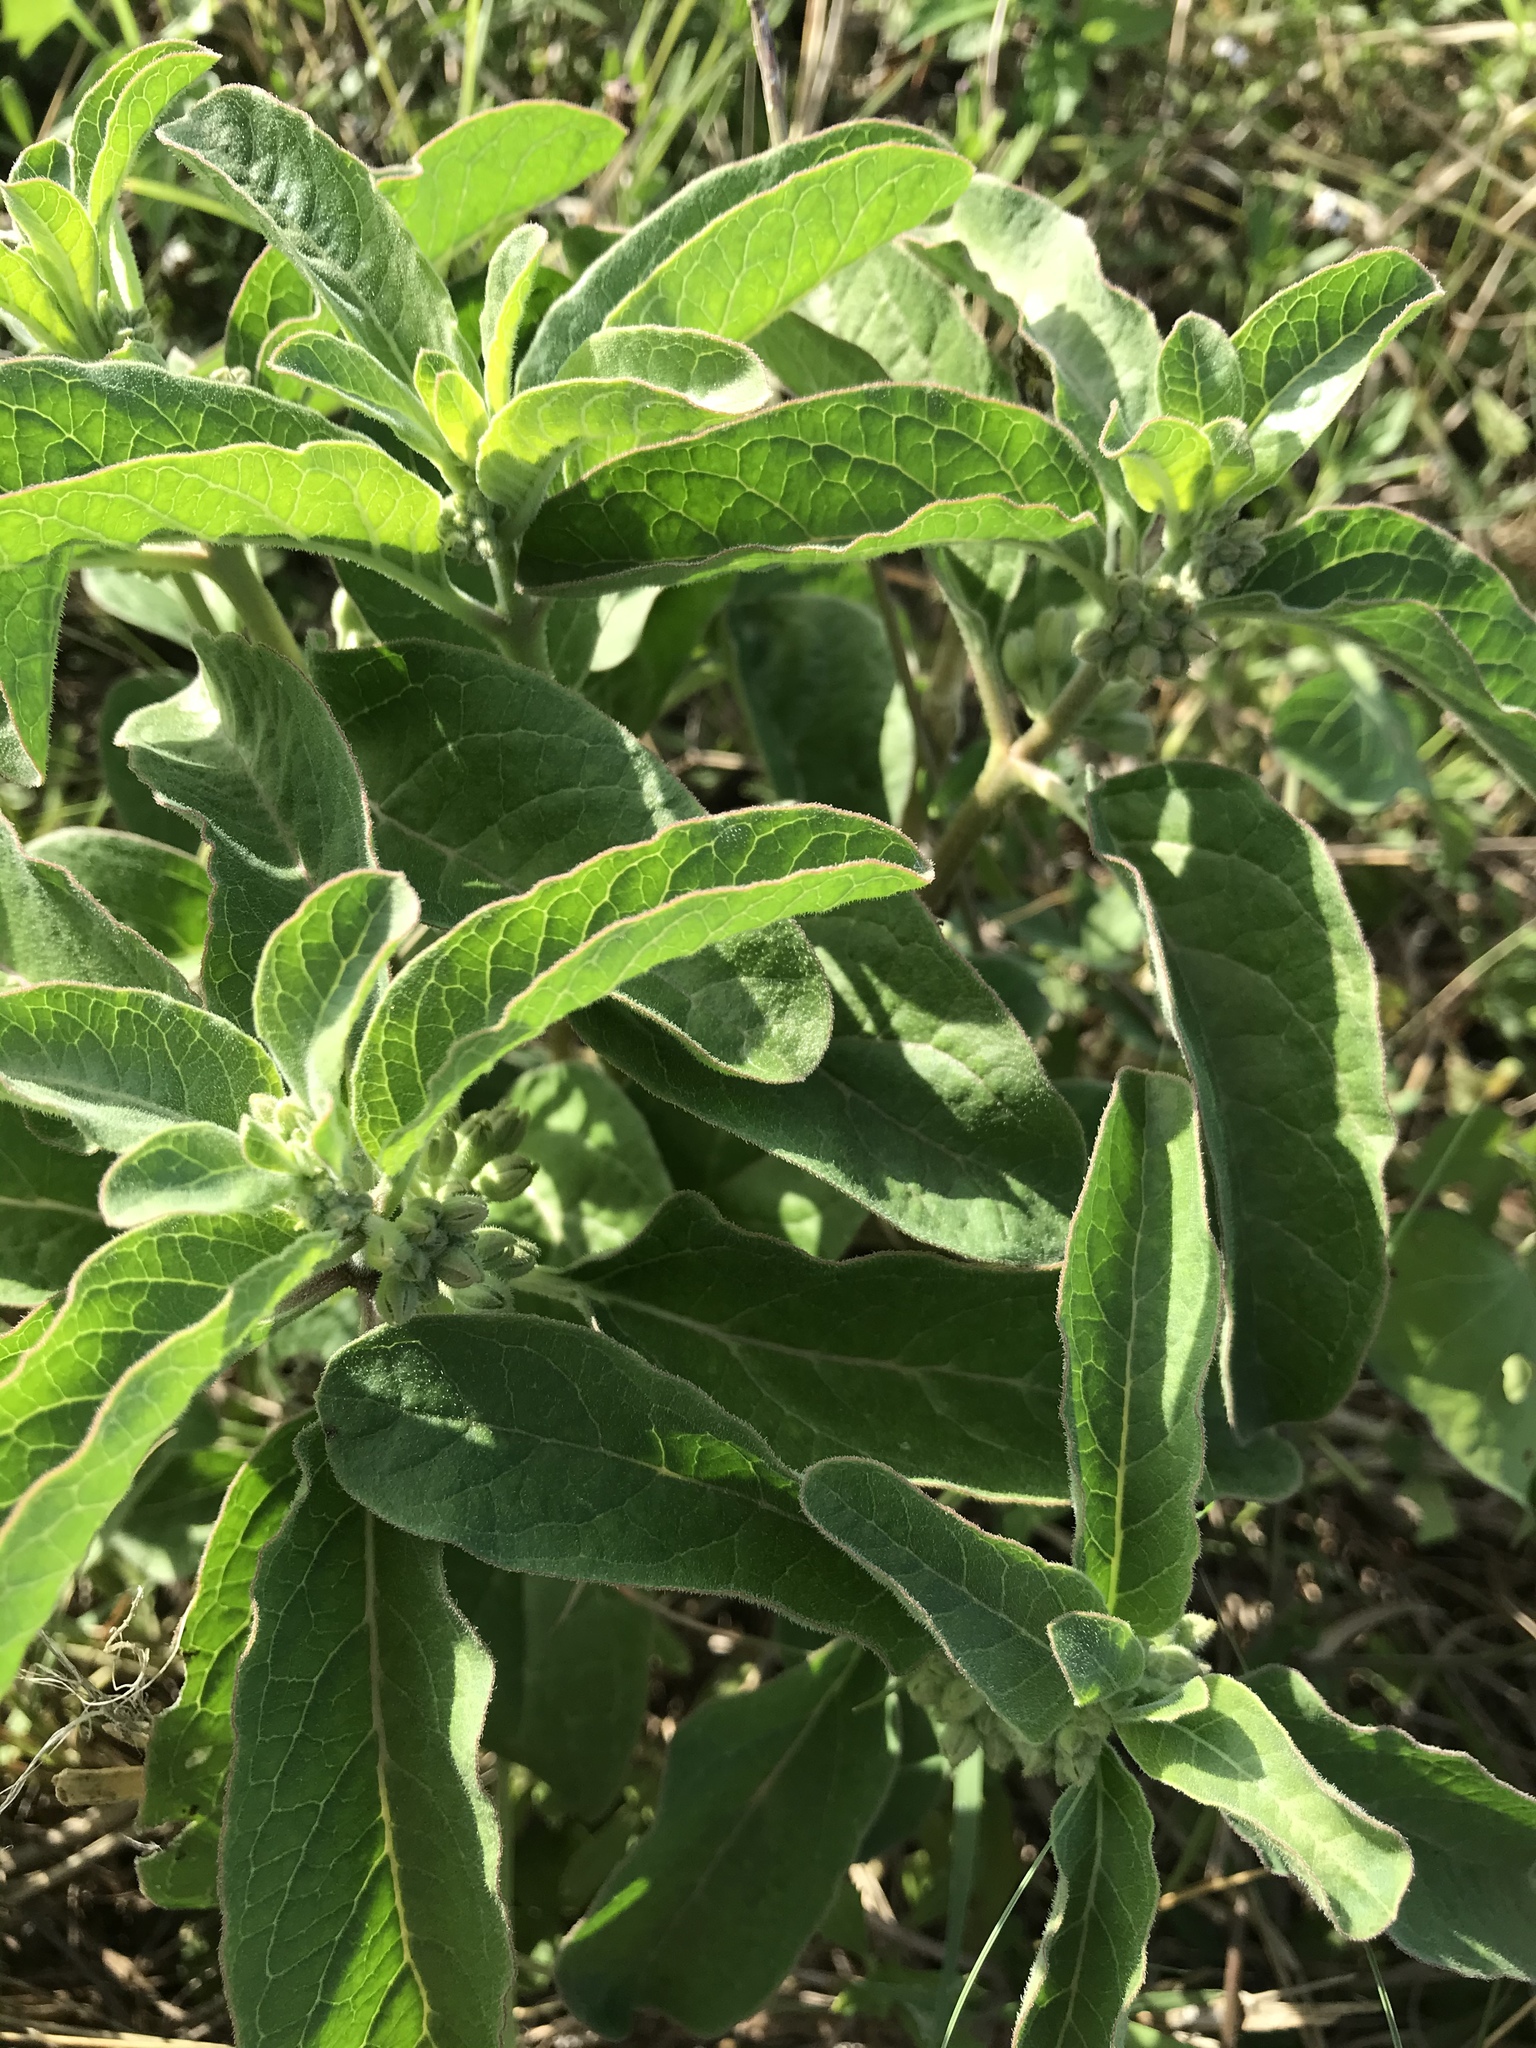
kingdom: Plantae
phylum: Tracheophyta
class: Magnoliopsida
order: Gentianales
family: Apocynaceae
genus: Asclepias
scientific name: Asclepias oenotheroides
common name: Zizotes milkweed
